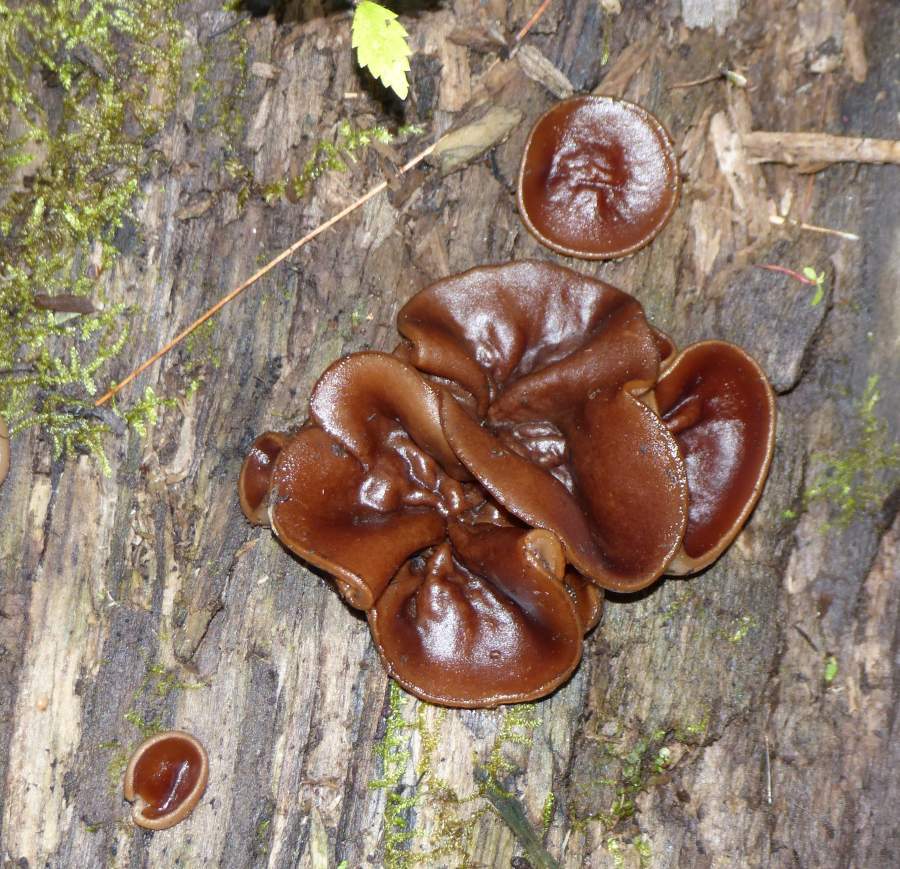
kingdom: Fungi
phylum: Ascomycota
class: Pezizomycetes
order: Pezizales
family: Pezizaceae
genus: Pachyella
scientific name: Pachyella clypeata
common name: Copper penny fungus
